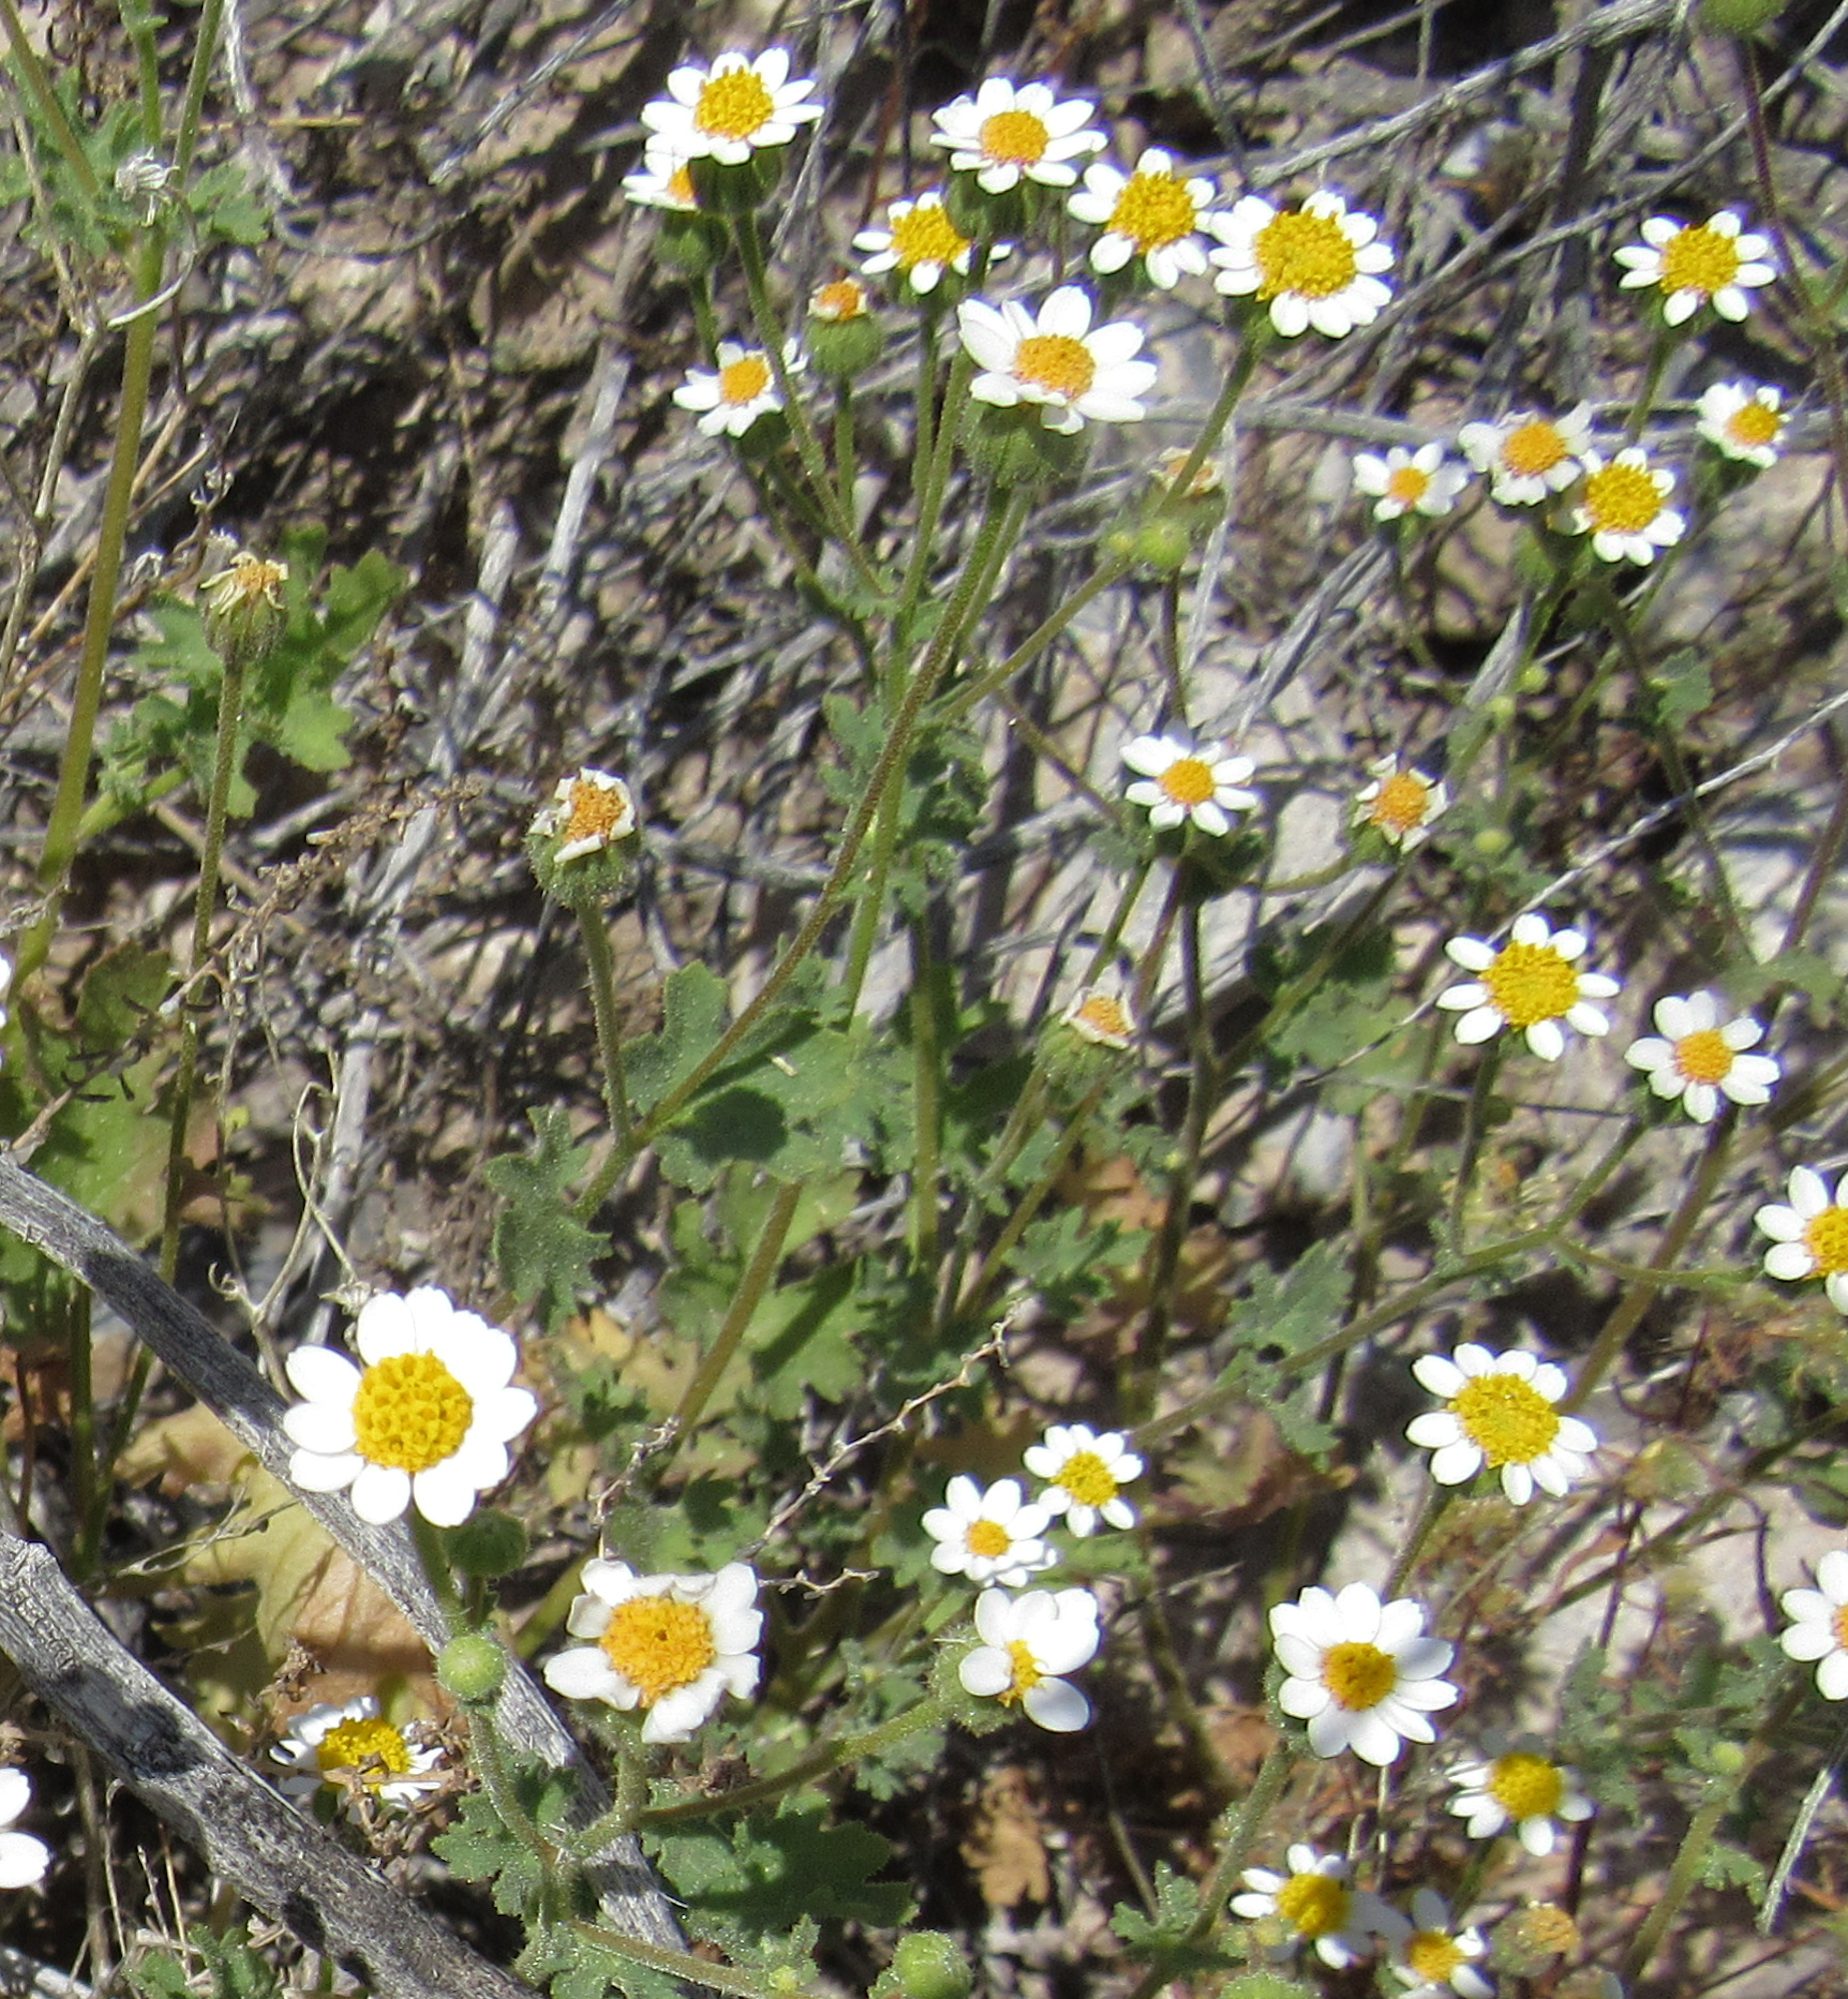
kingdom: Plantae
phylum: Tracheophyta
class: Magnoliopsida
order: Asterales
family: Asteraceae
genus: Laphamia
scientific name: Laphamia emoryi
